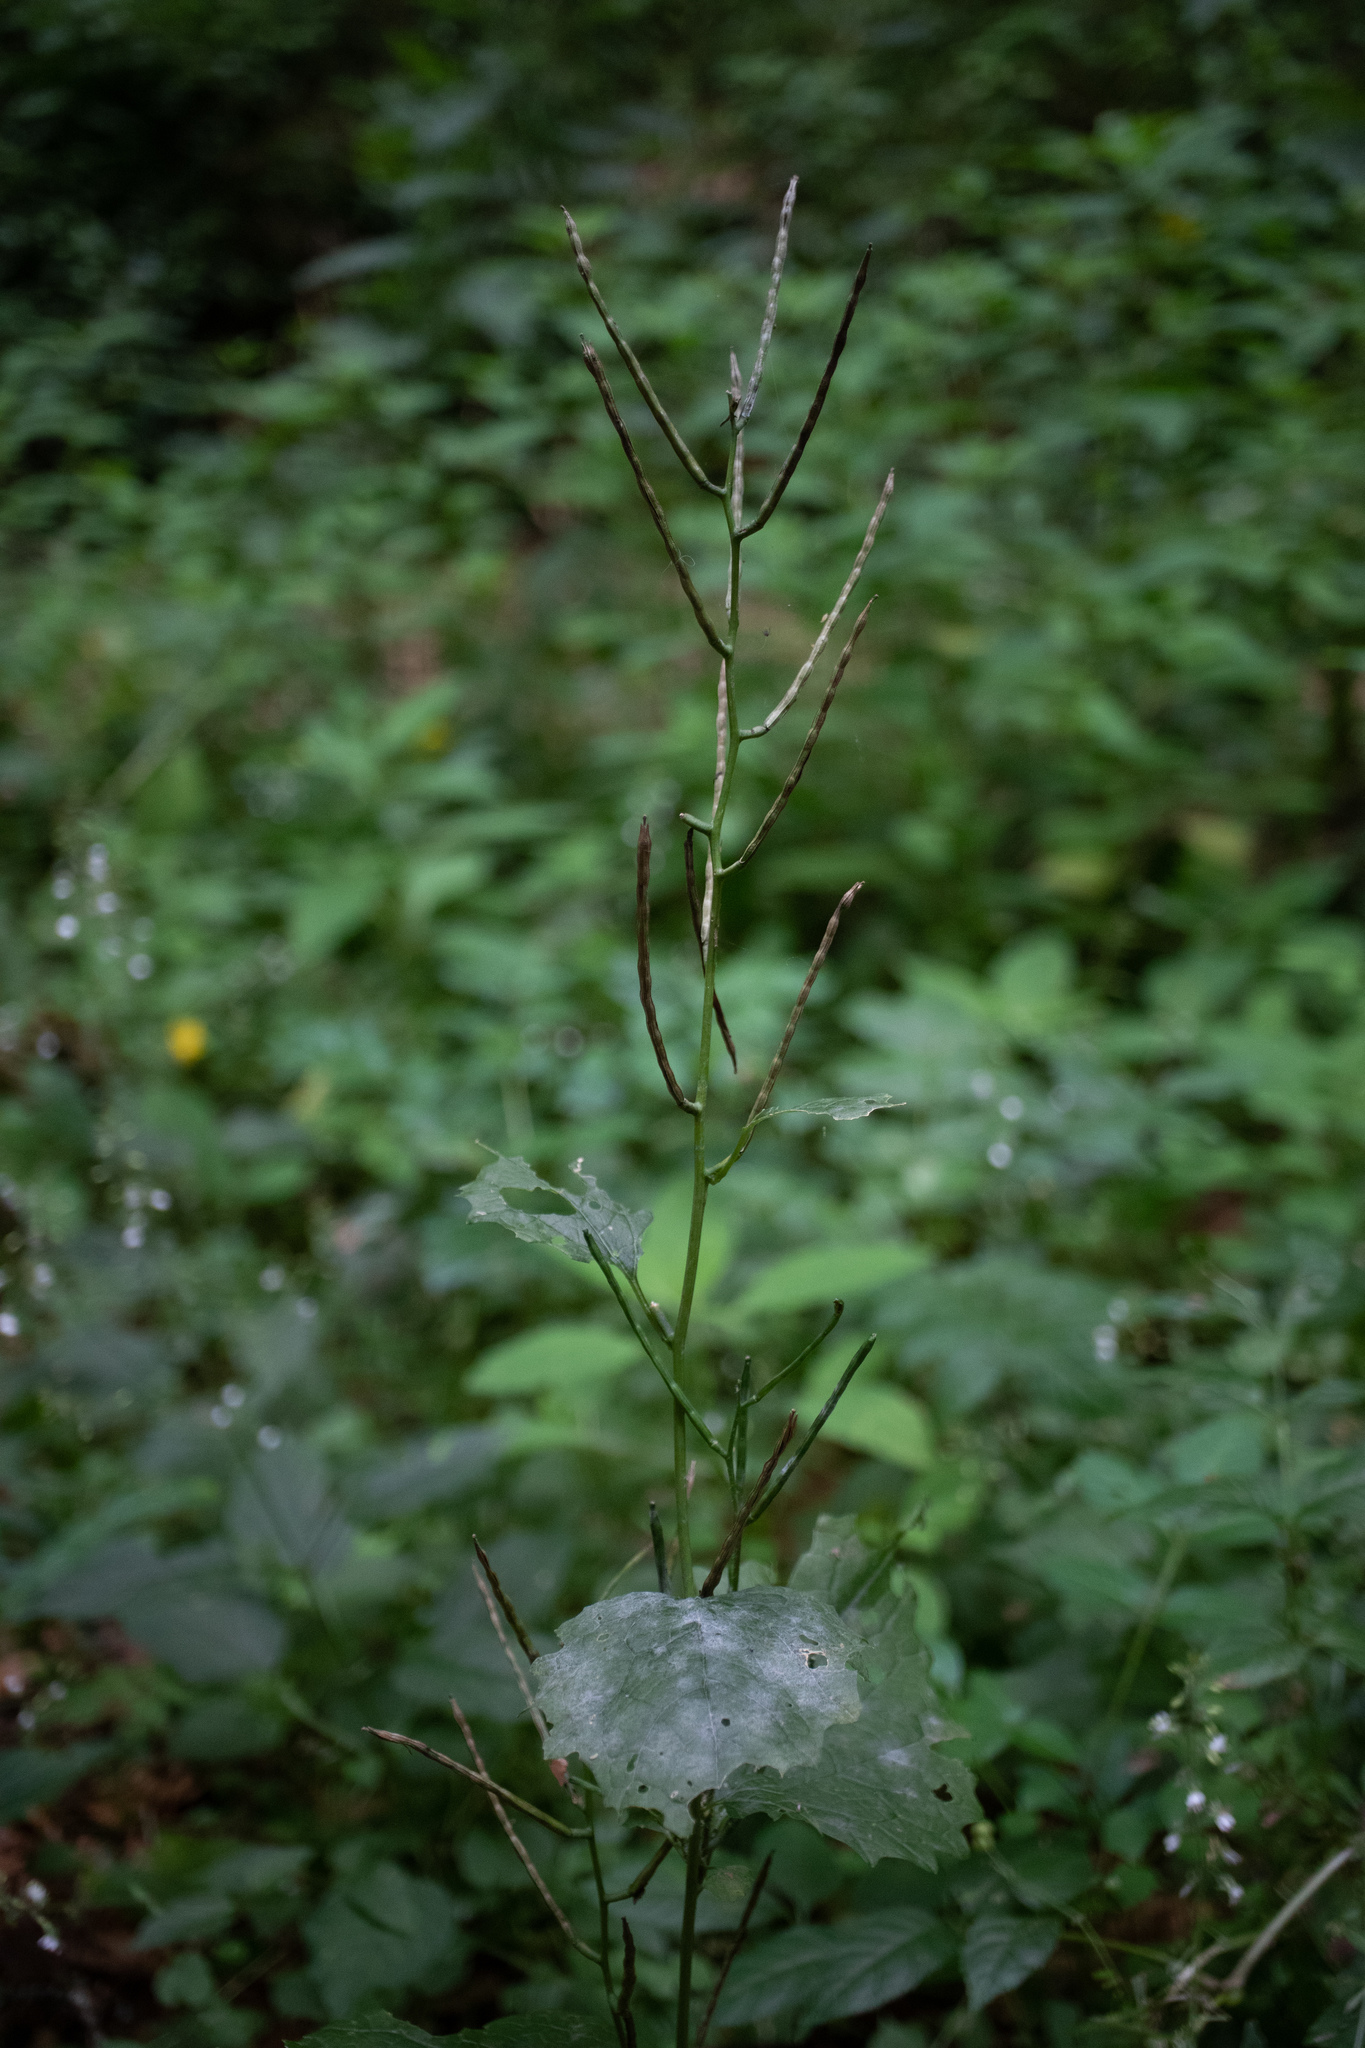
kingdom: Plantae
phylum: Tracheophyta
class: Magnoliopsida
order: Brassicales
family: Brassicaceae
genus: Alliaria
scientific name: Alliaria petiolata
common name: Garlic mustard
